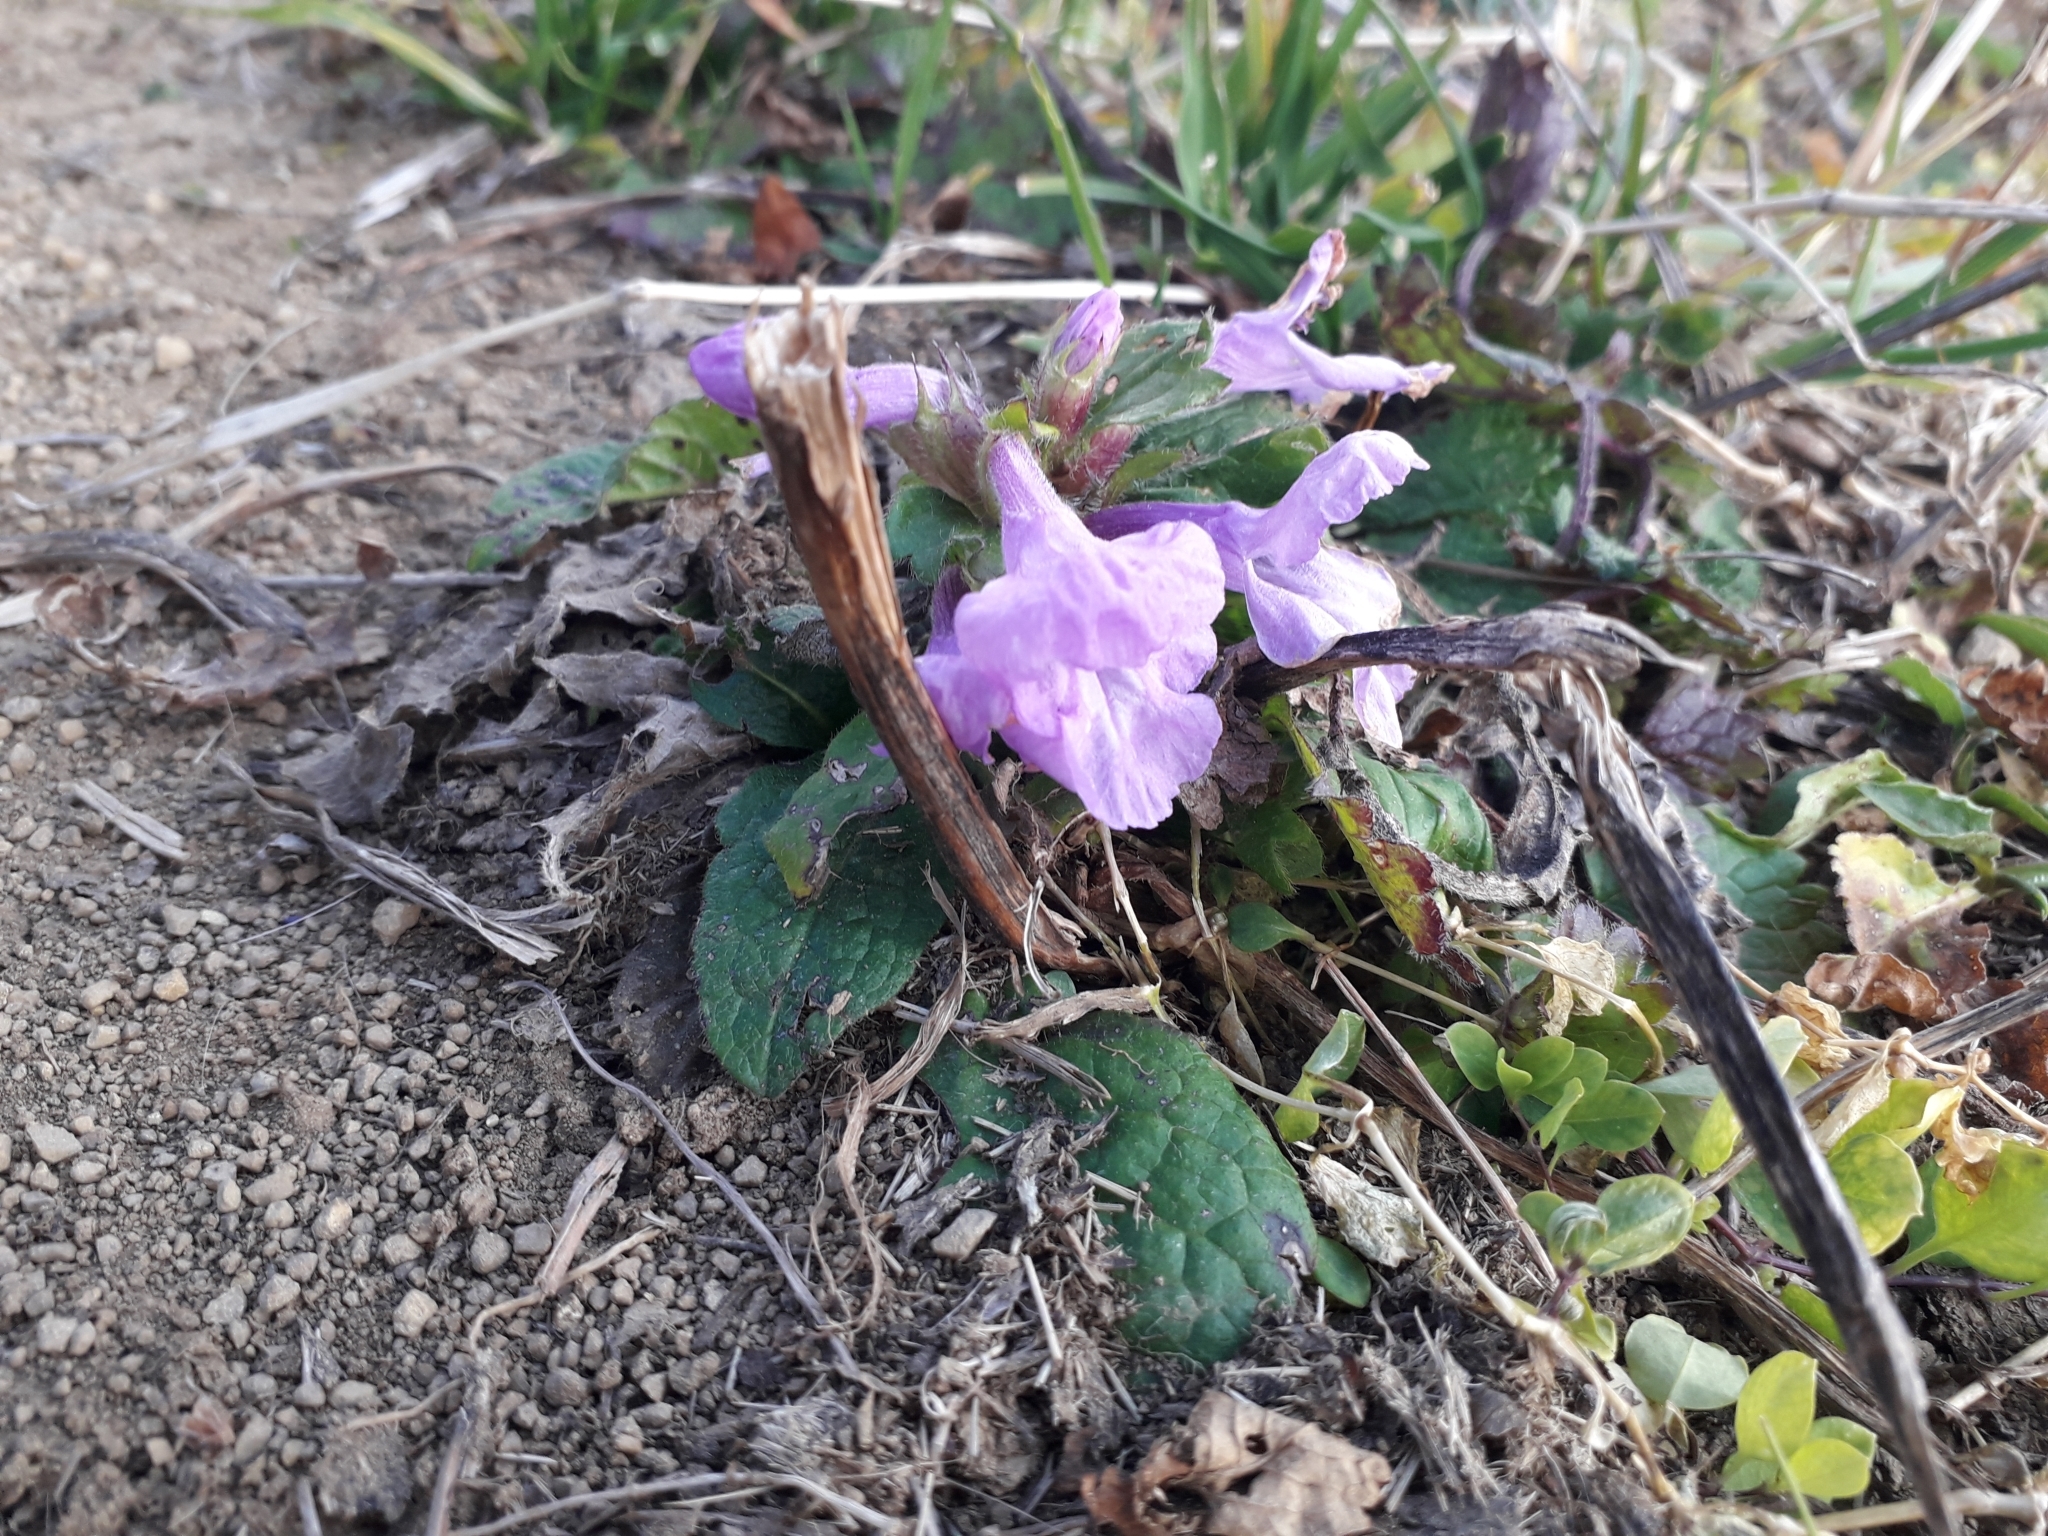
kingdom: Plantae
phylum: Tracheophyta
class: Magnoliopsida
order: Lamiales
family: Lamiaceae
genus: Betonica
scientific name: Betonica macrantha
